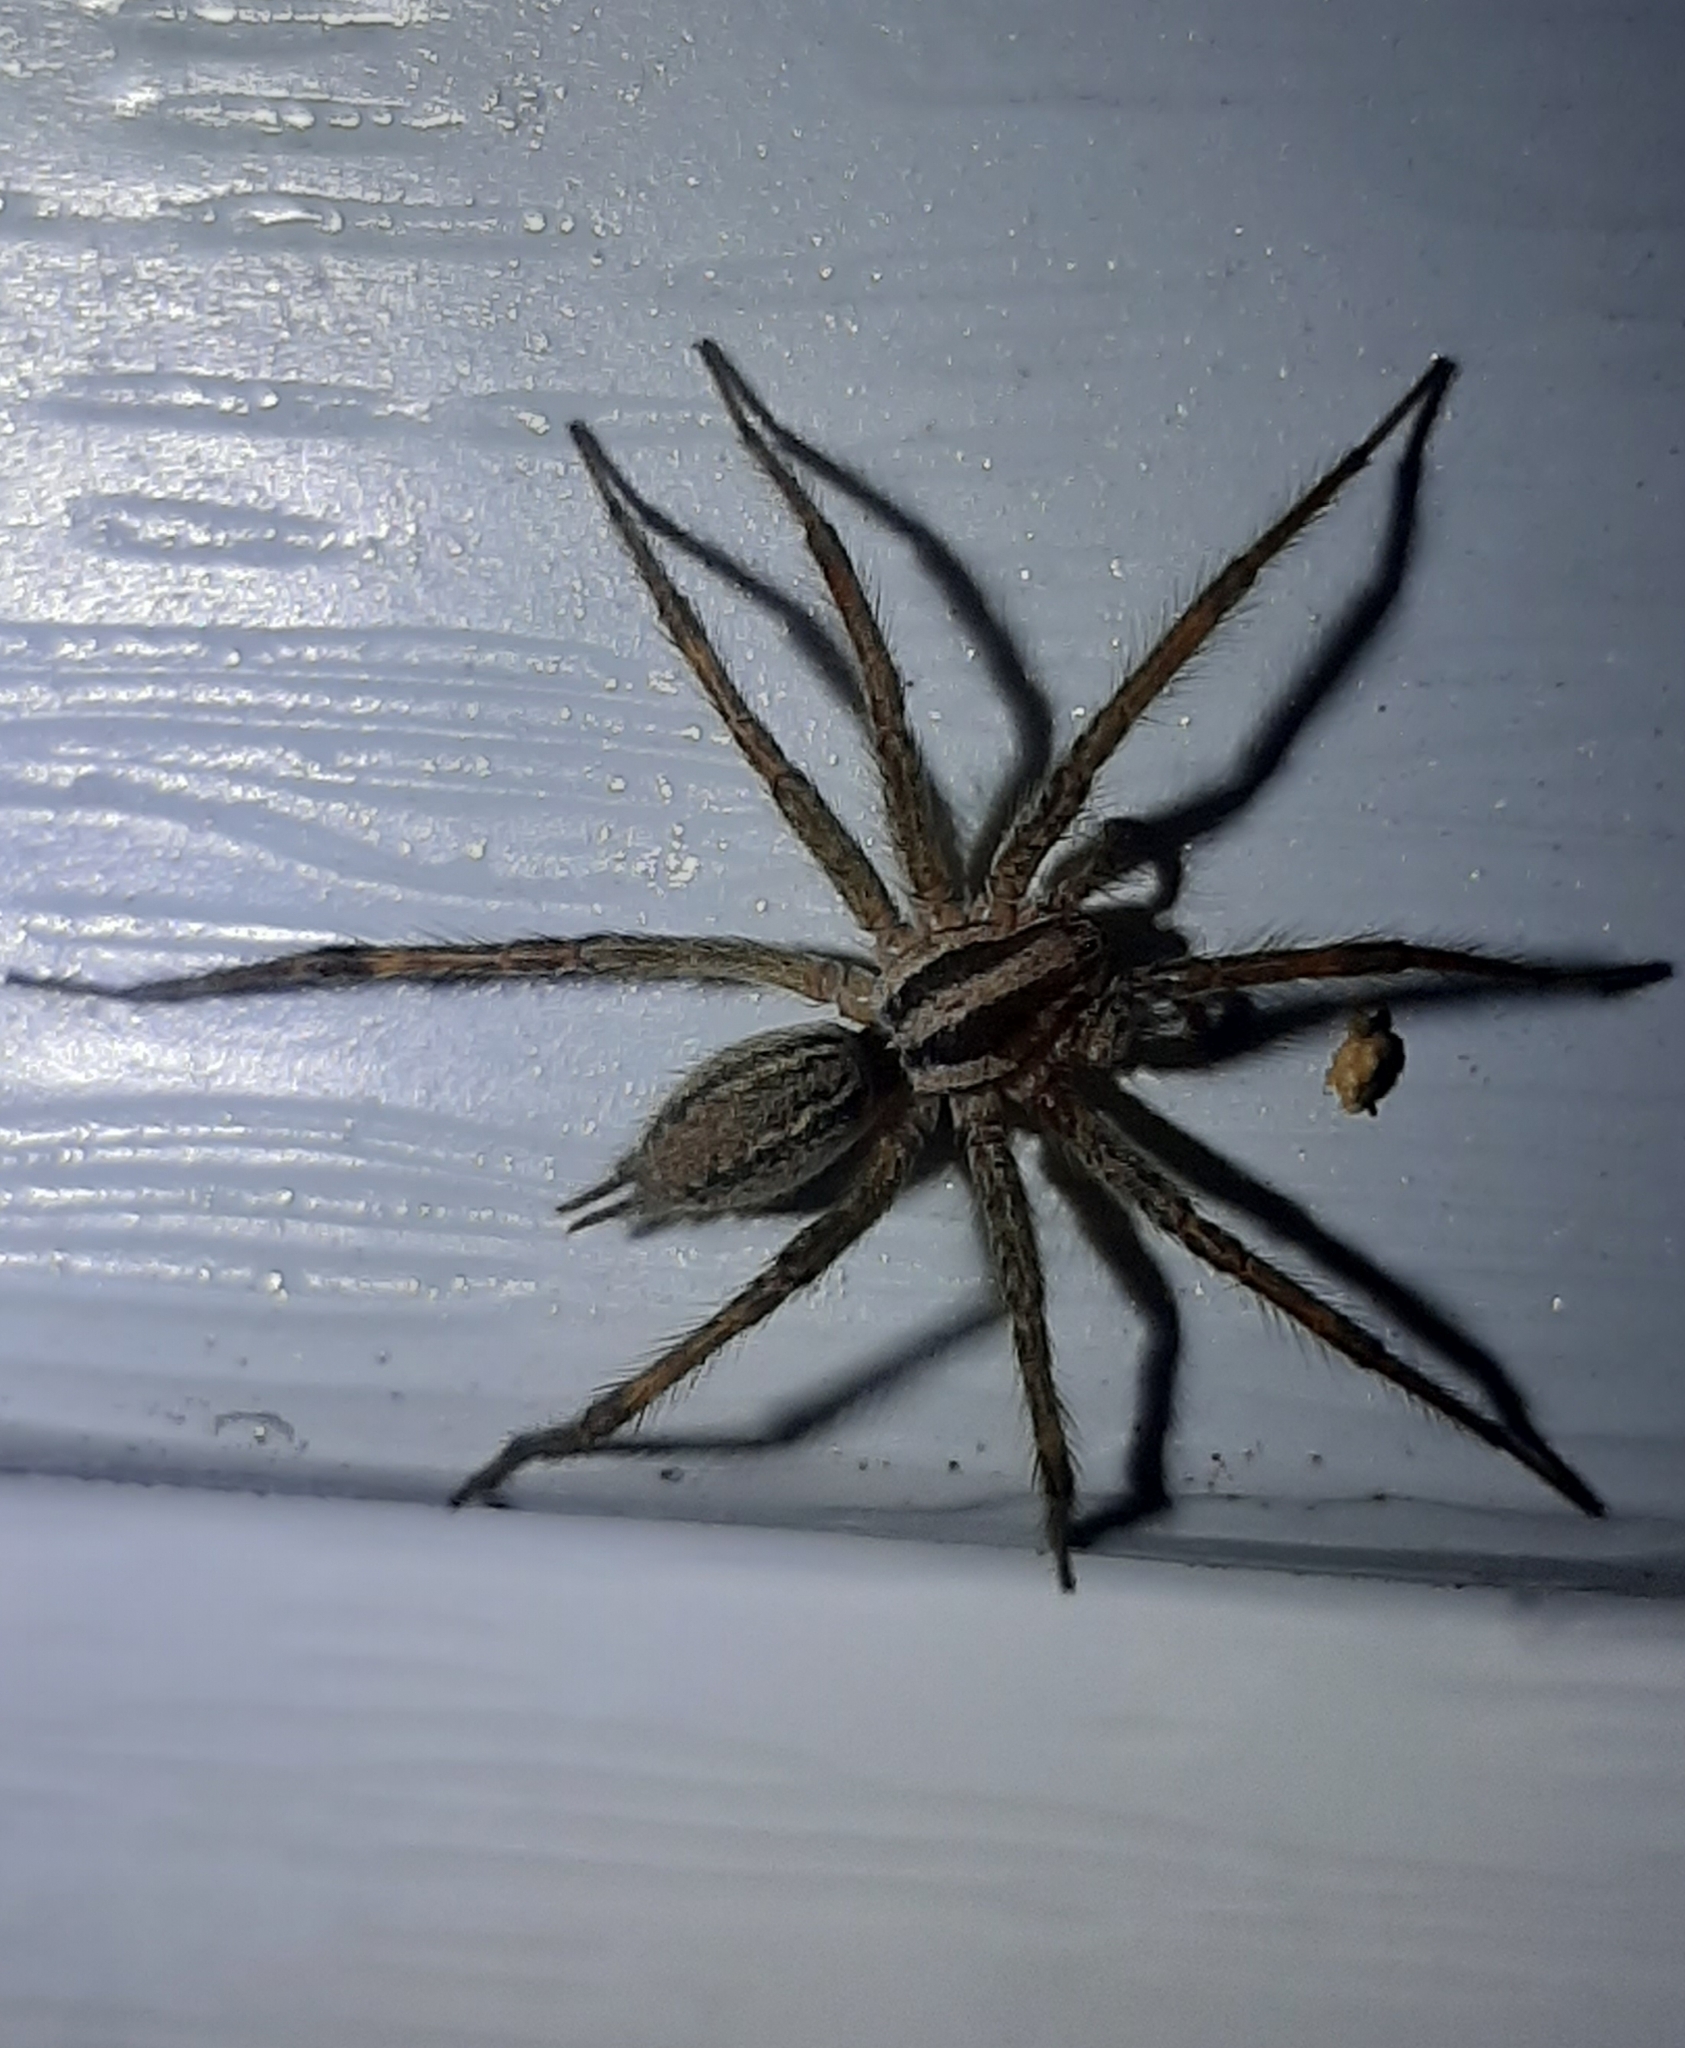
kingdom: Animalia
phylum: Arthropoda
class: Arachnida
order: Araneae
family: Agelenidae
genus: Agelenopsis
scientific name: Agelenopsis
